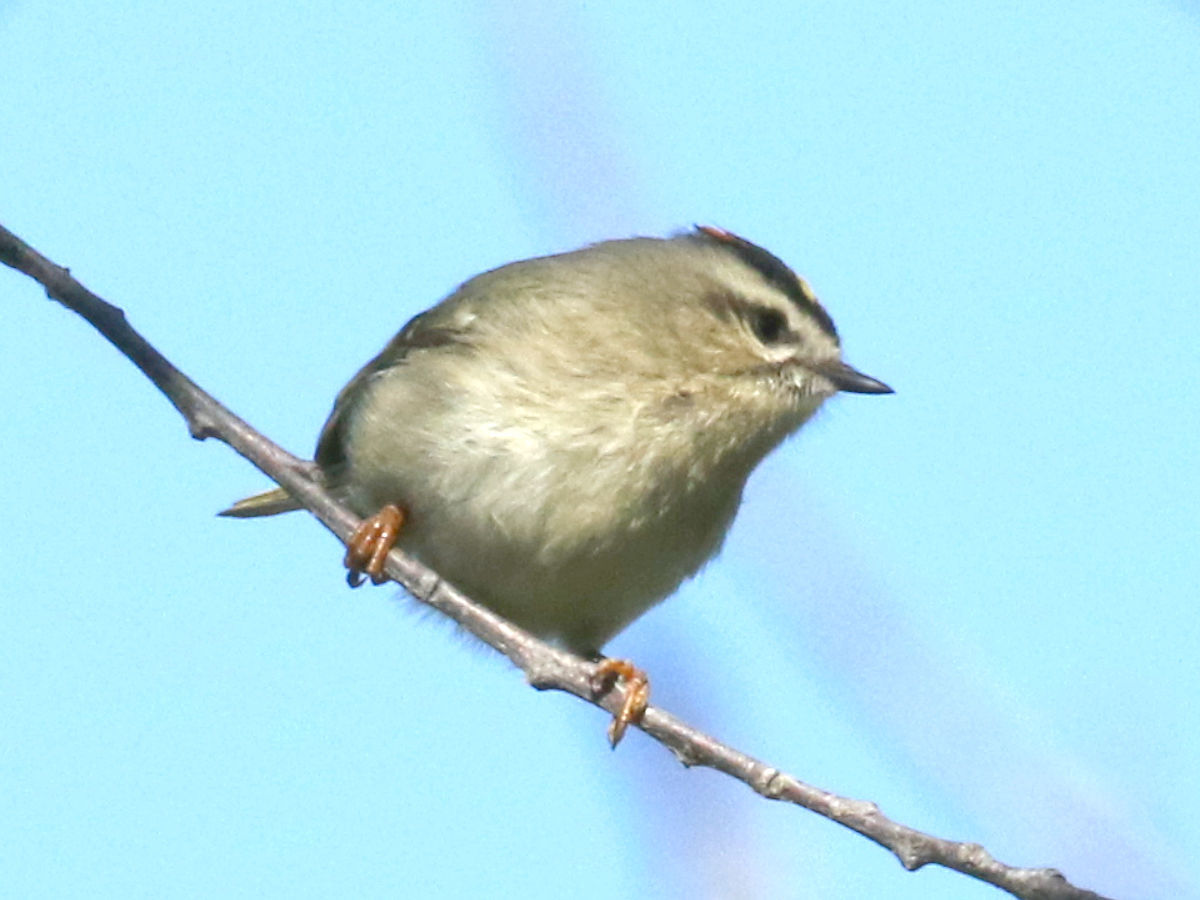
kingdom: Animalia
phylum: Chordata
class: Aves
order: Passeriformes
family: Regulidae
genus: Regulus
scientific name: Regulus satrapa
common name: Golden-crowned kinglet
